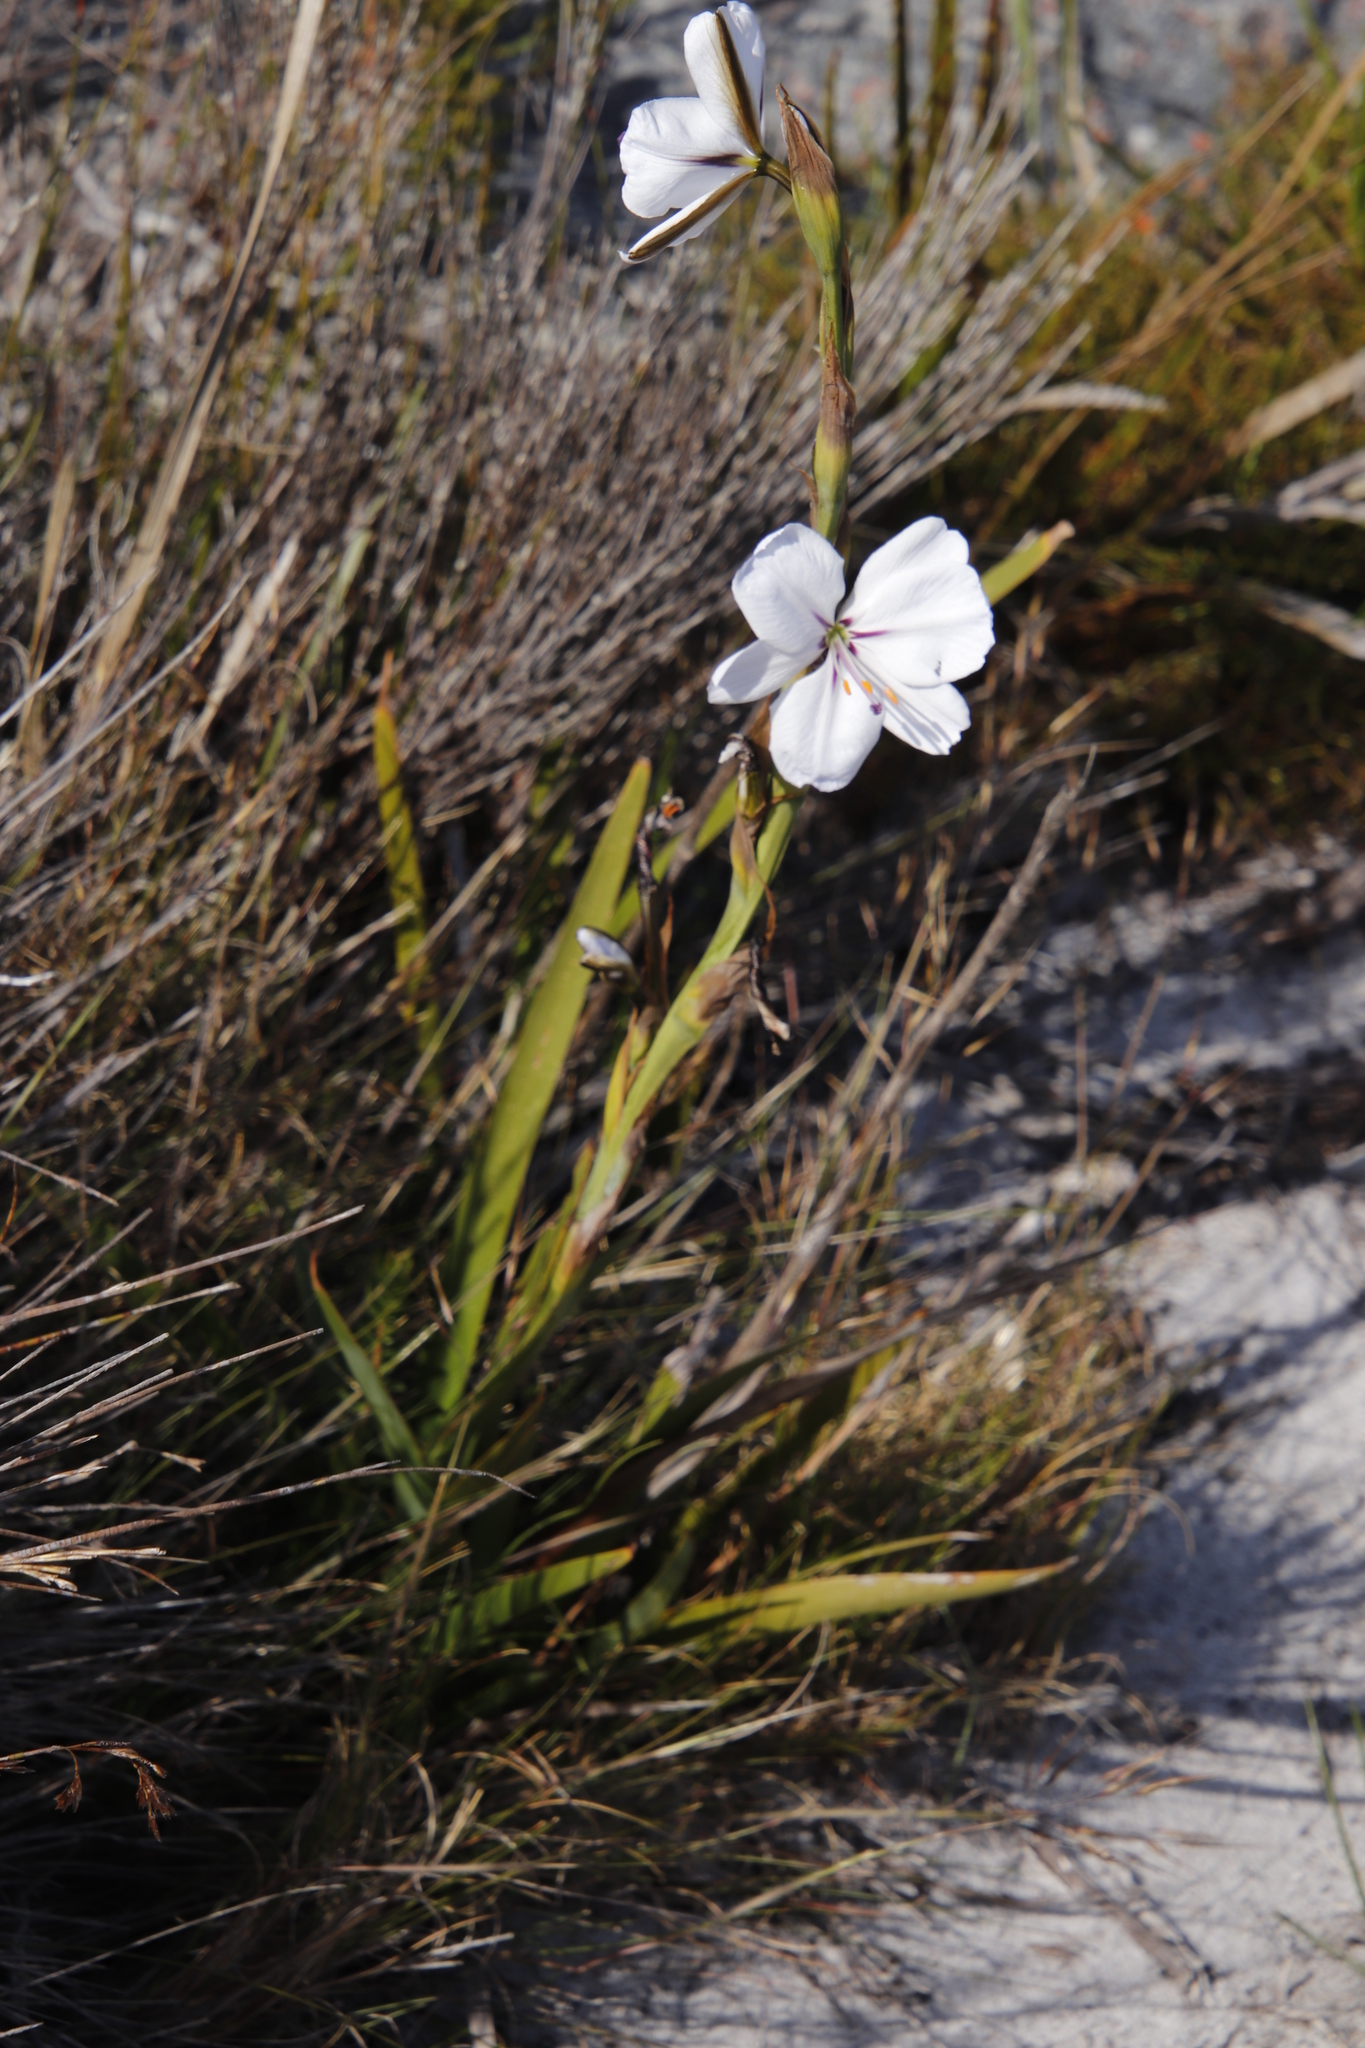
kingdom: Plantae
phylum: Tracheophyta
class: Liliopsida
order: Asparagales
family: Iridaceae
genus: Aristea
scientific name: Aristea spiralis
